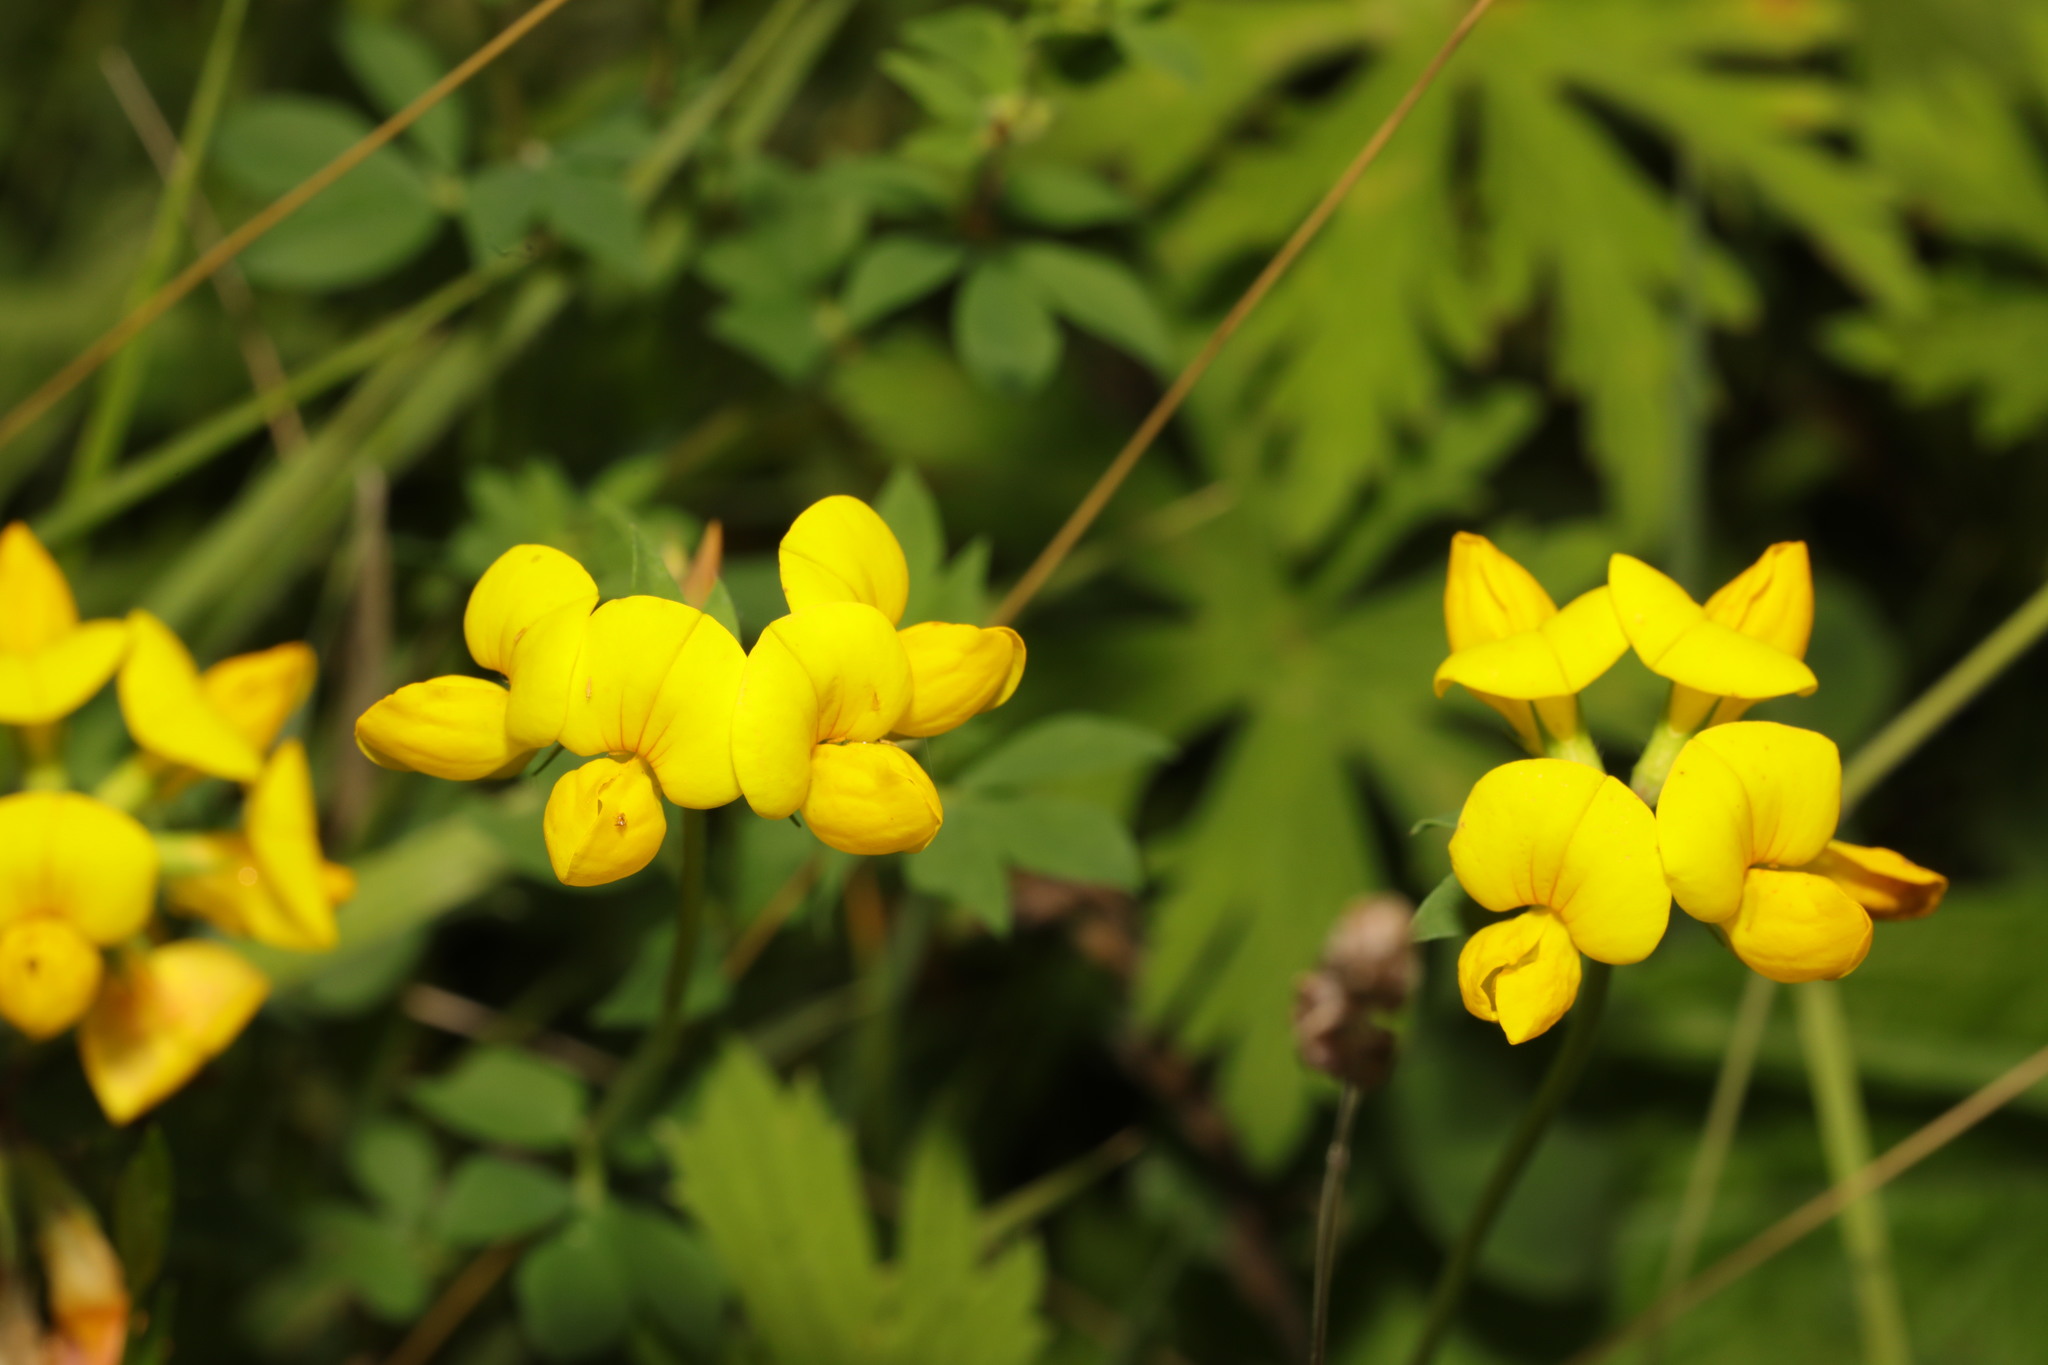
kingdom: Plantae
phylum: Tracheophyta
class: Magnoliopsida
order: Fabales
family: Fabaceae
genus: Lotus
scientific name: Lotus corniculatus
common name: Common bird's-foot-trefoil
